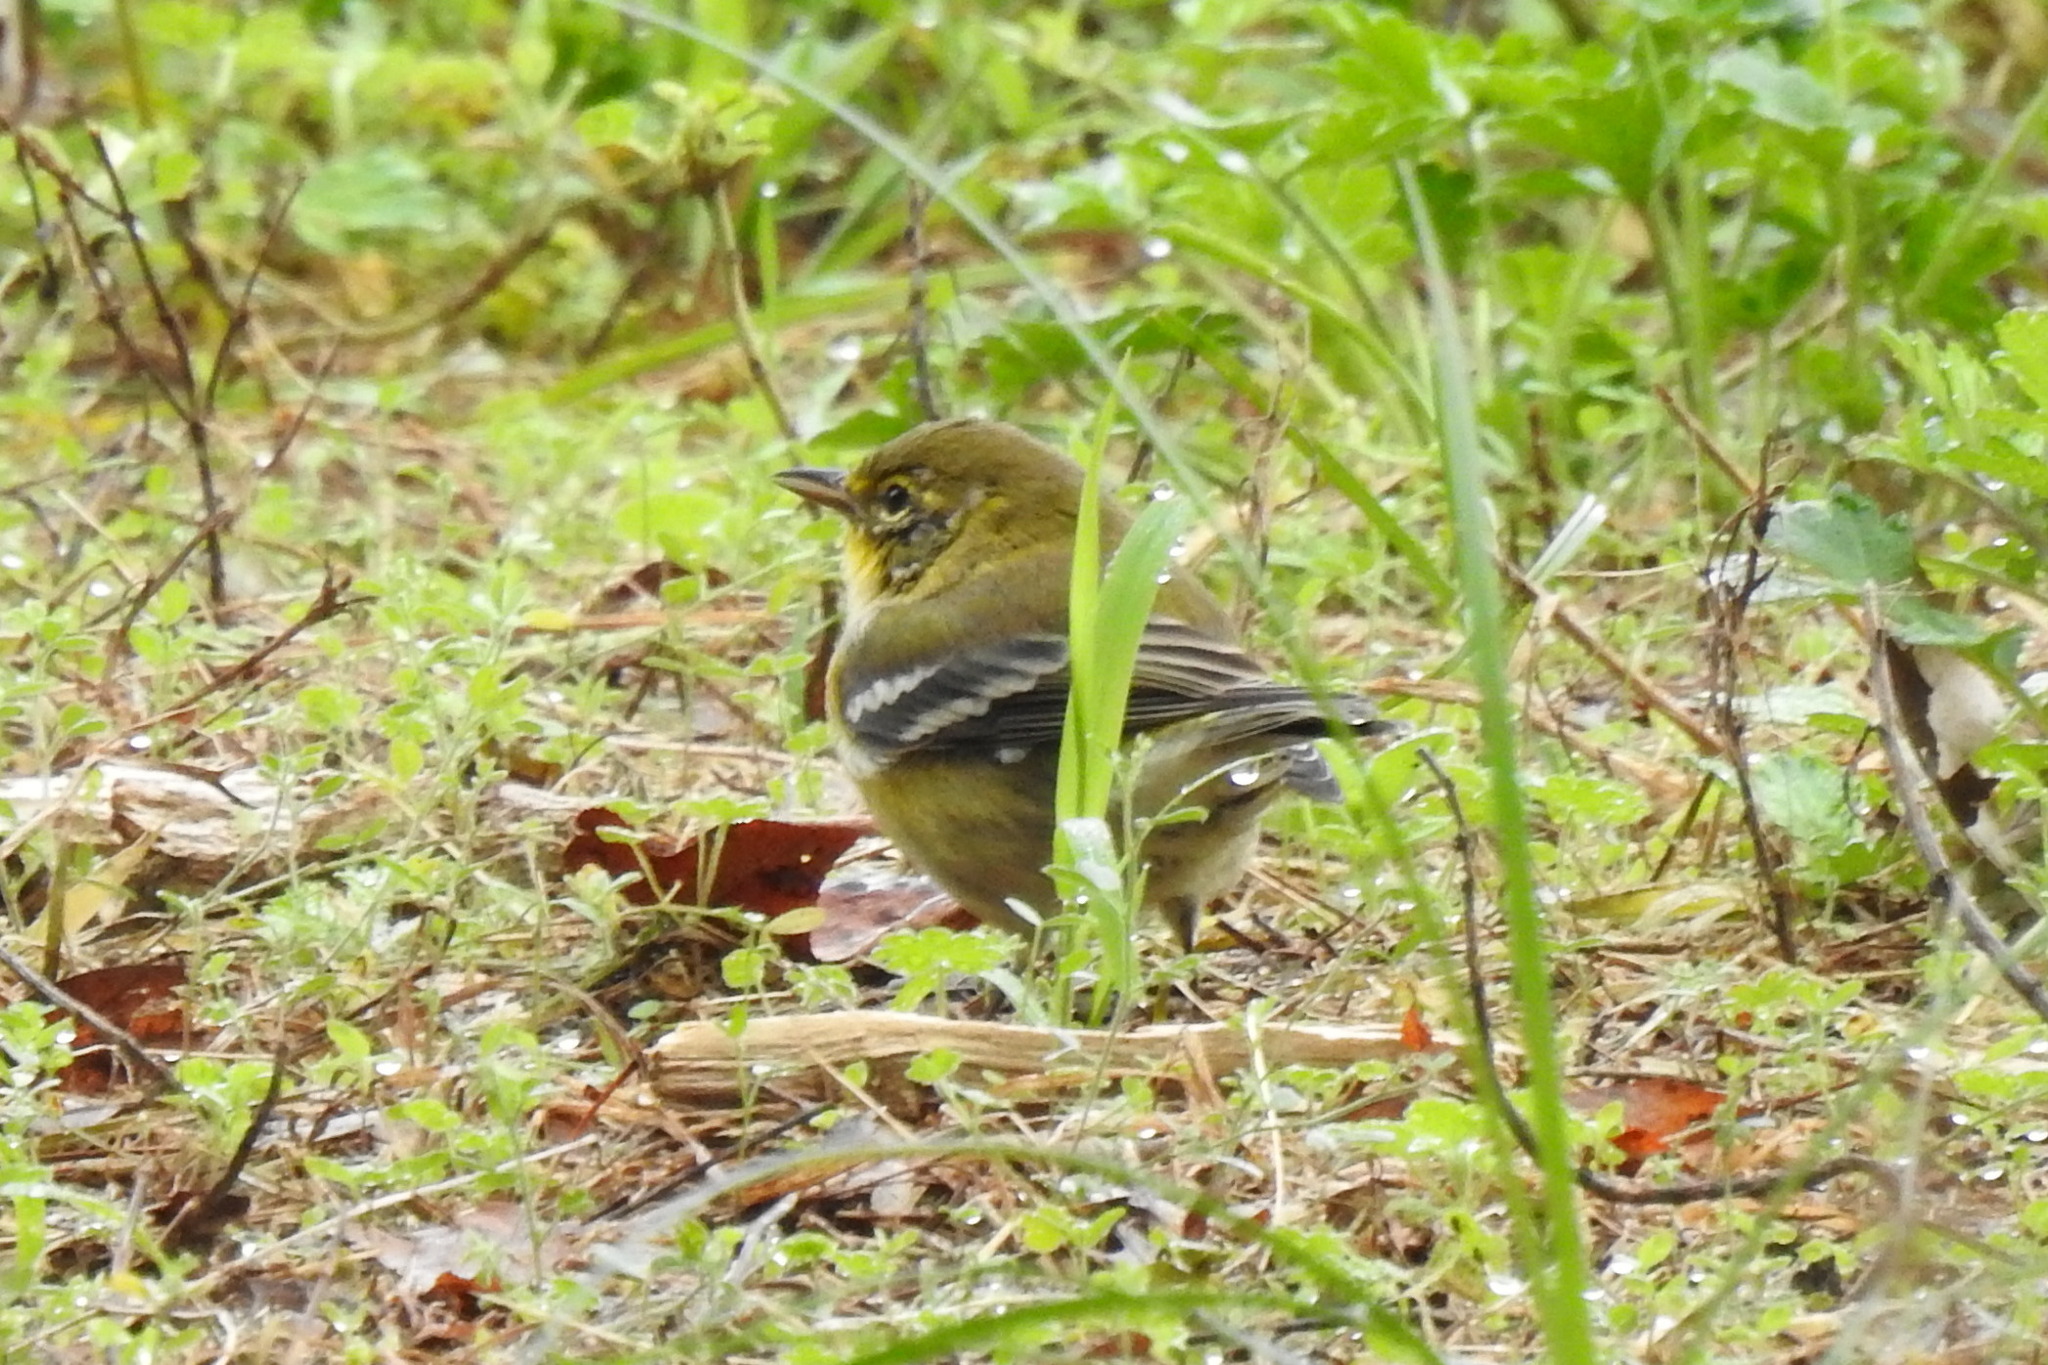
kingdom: Animalia
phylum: Chordata
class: Aves
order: Passeriformes
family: Parulidae
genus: Setophaga
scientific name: Setophaga pinus
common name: Pine warbler
